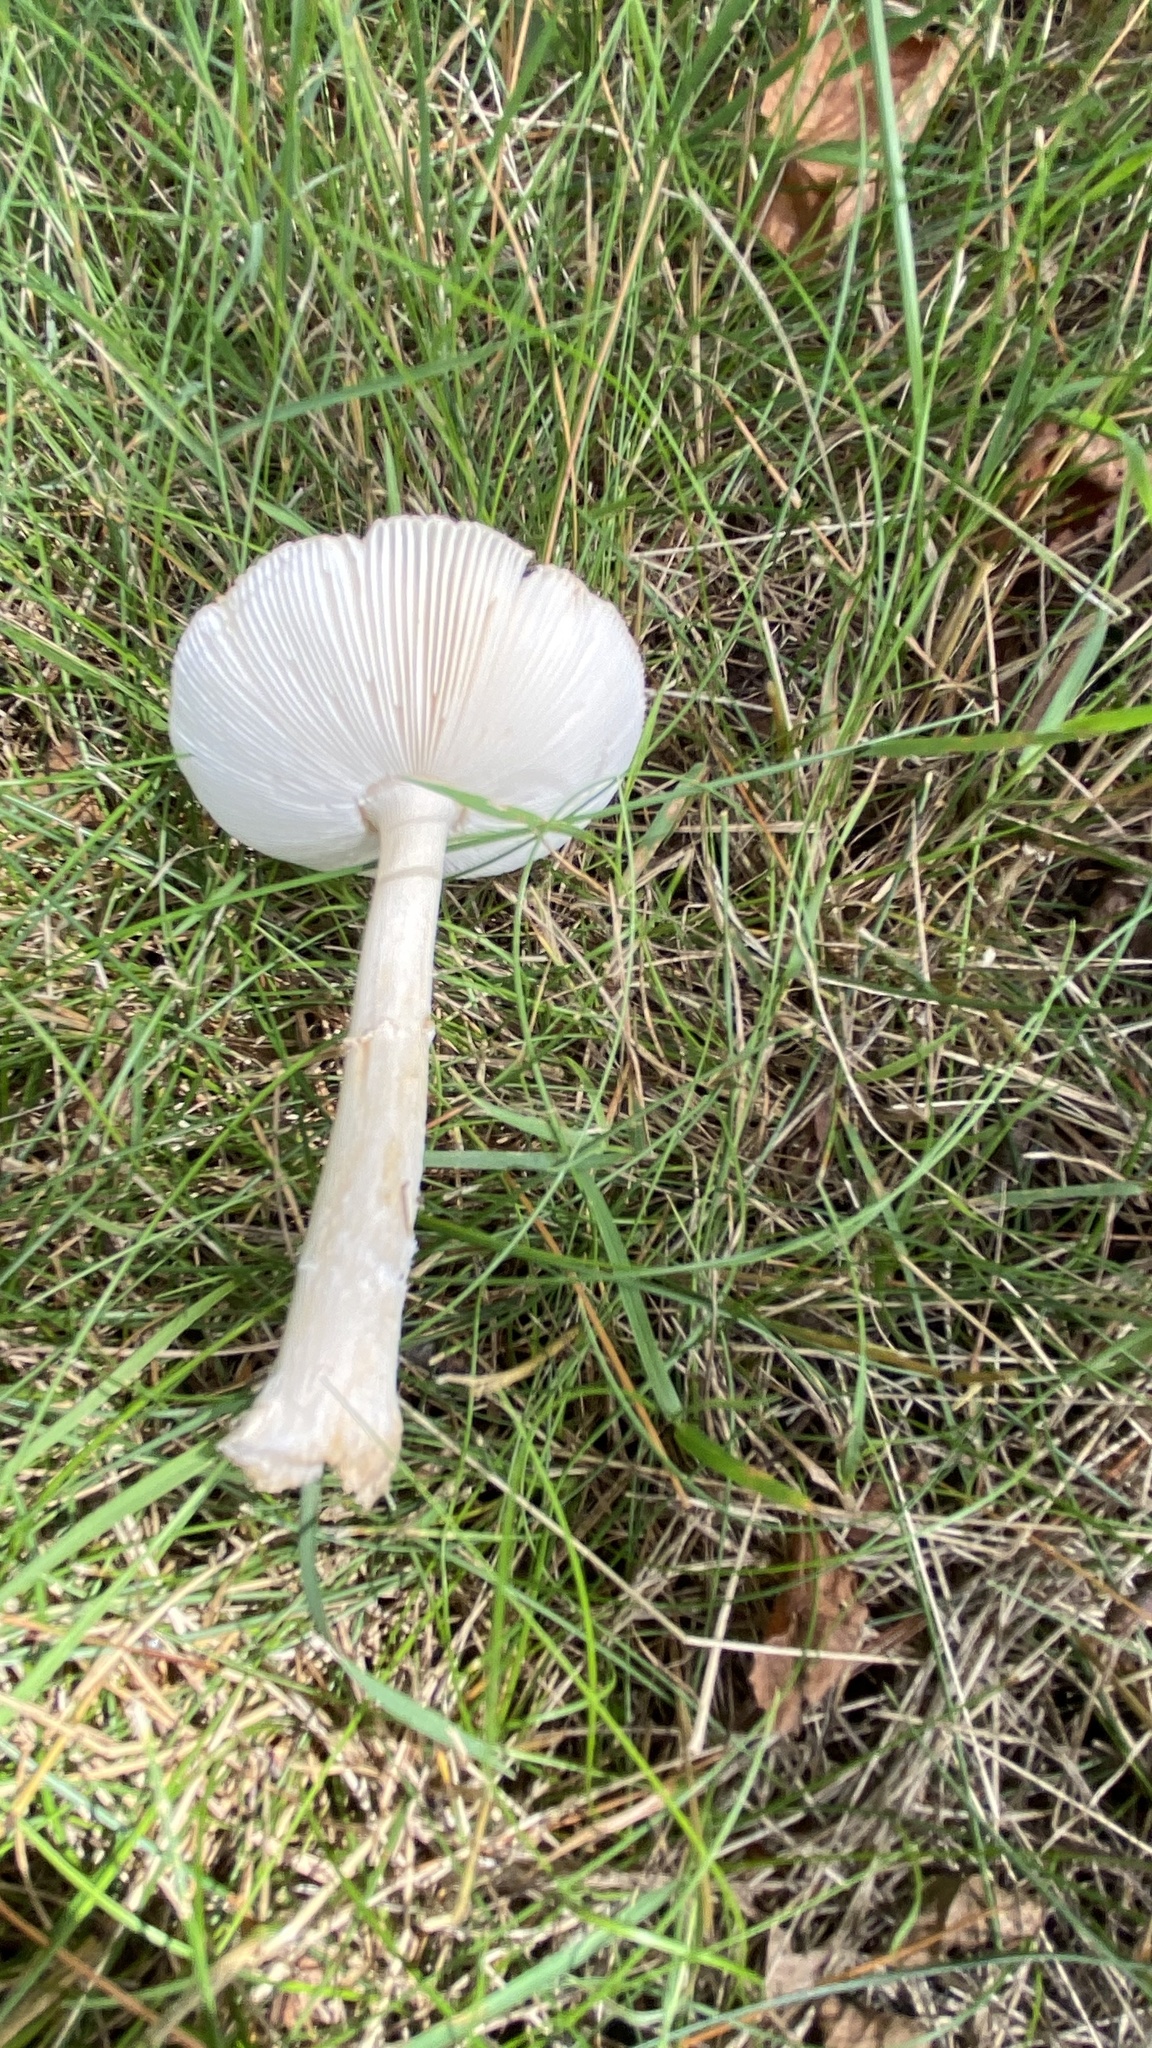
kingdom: Fungi
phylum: Basidiomycota
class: Agaricomycetes
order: Agaricales
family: Amanitaceae
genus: Amanita
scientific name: Amanita russuloides
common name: Russula-like amanita
